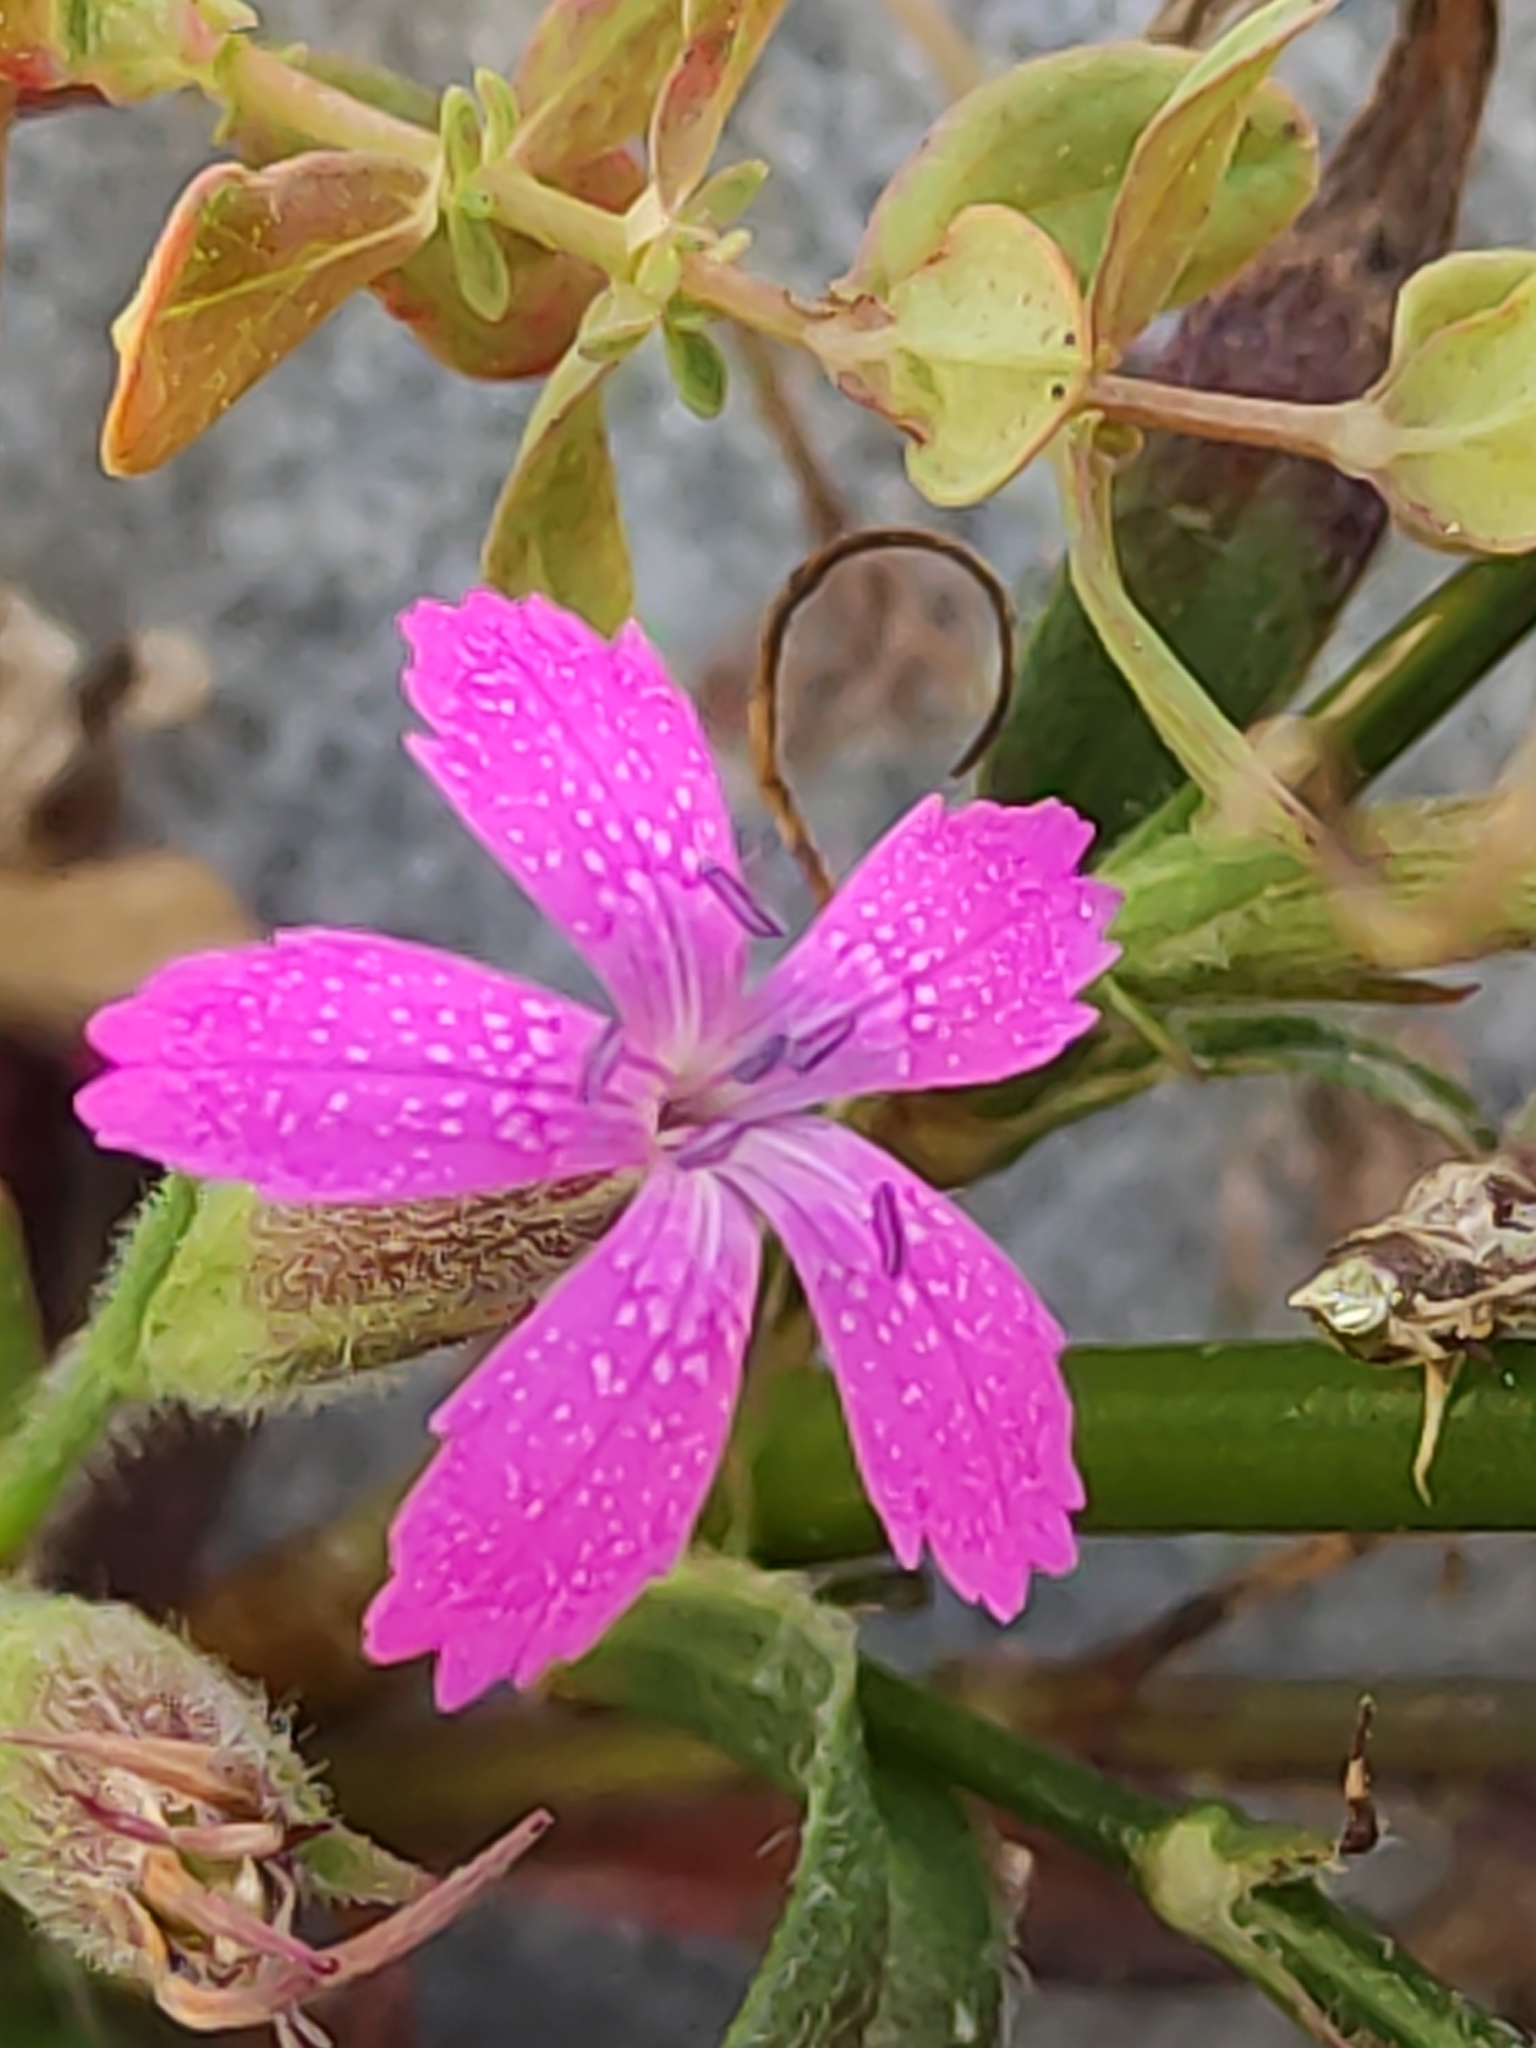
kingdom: Plantae
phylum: Tracheophyta
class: Magnoliopsida
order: Caryophyllales
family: Caryophyllaceae
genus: Dianthus
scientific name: Dianthus armeria
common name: Deptford pink
